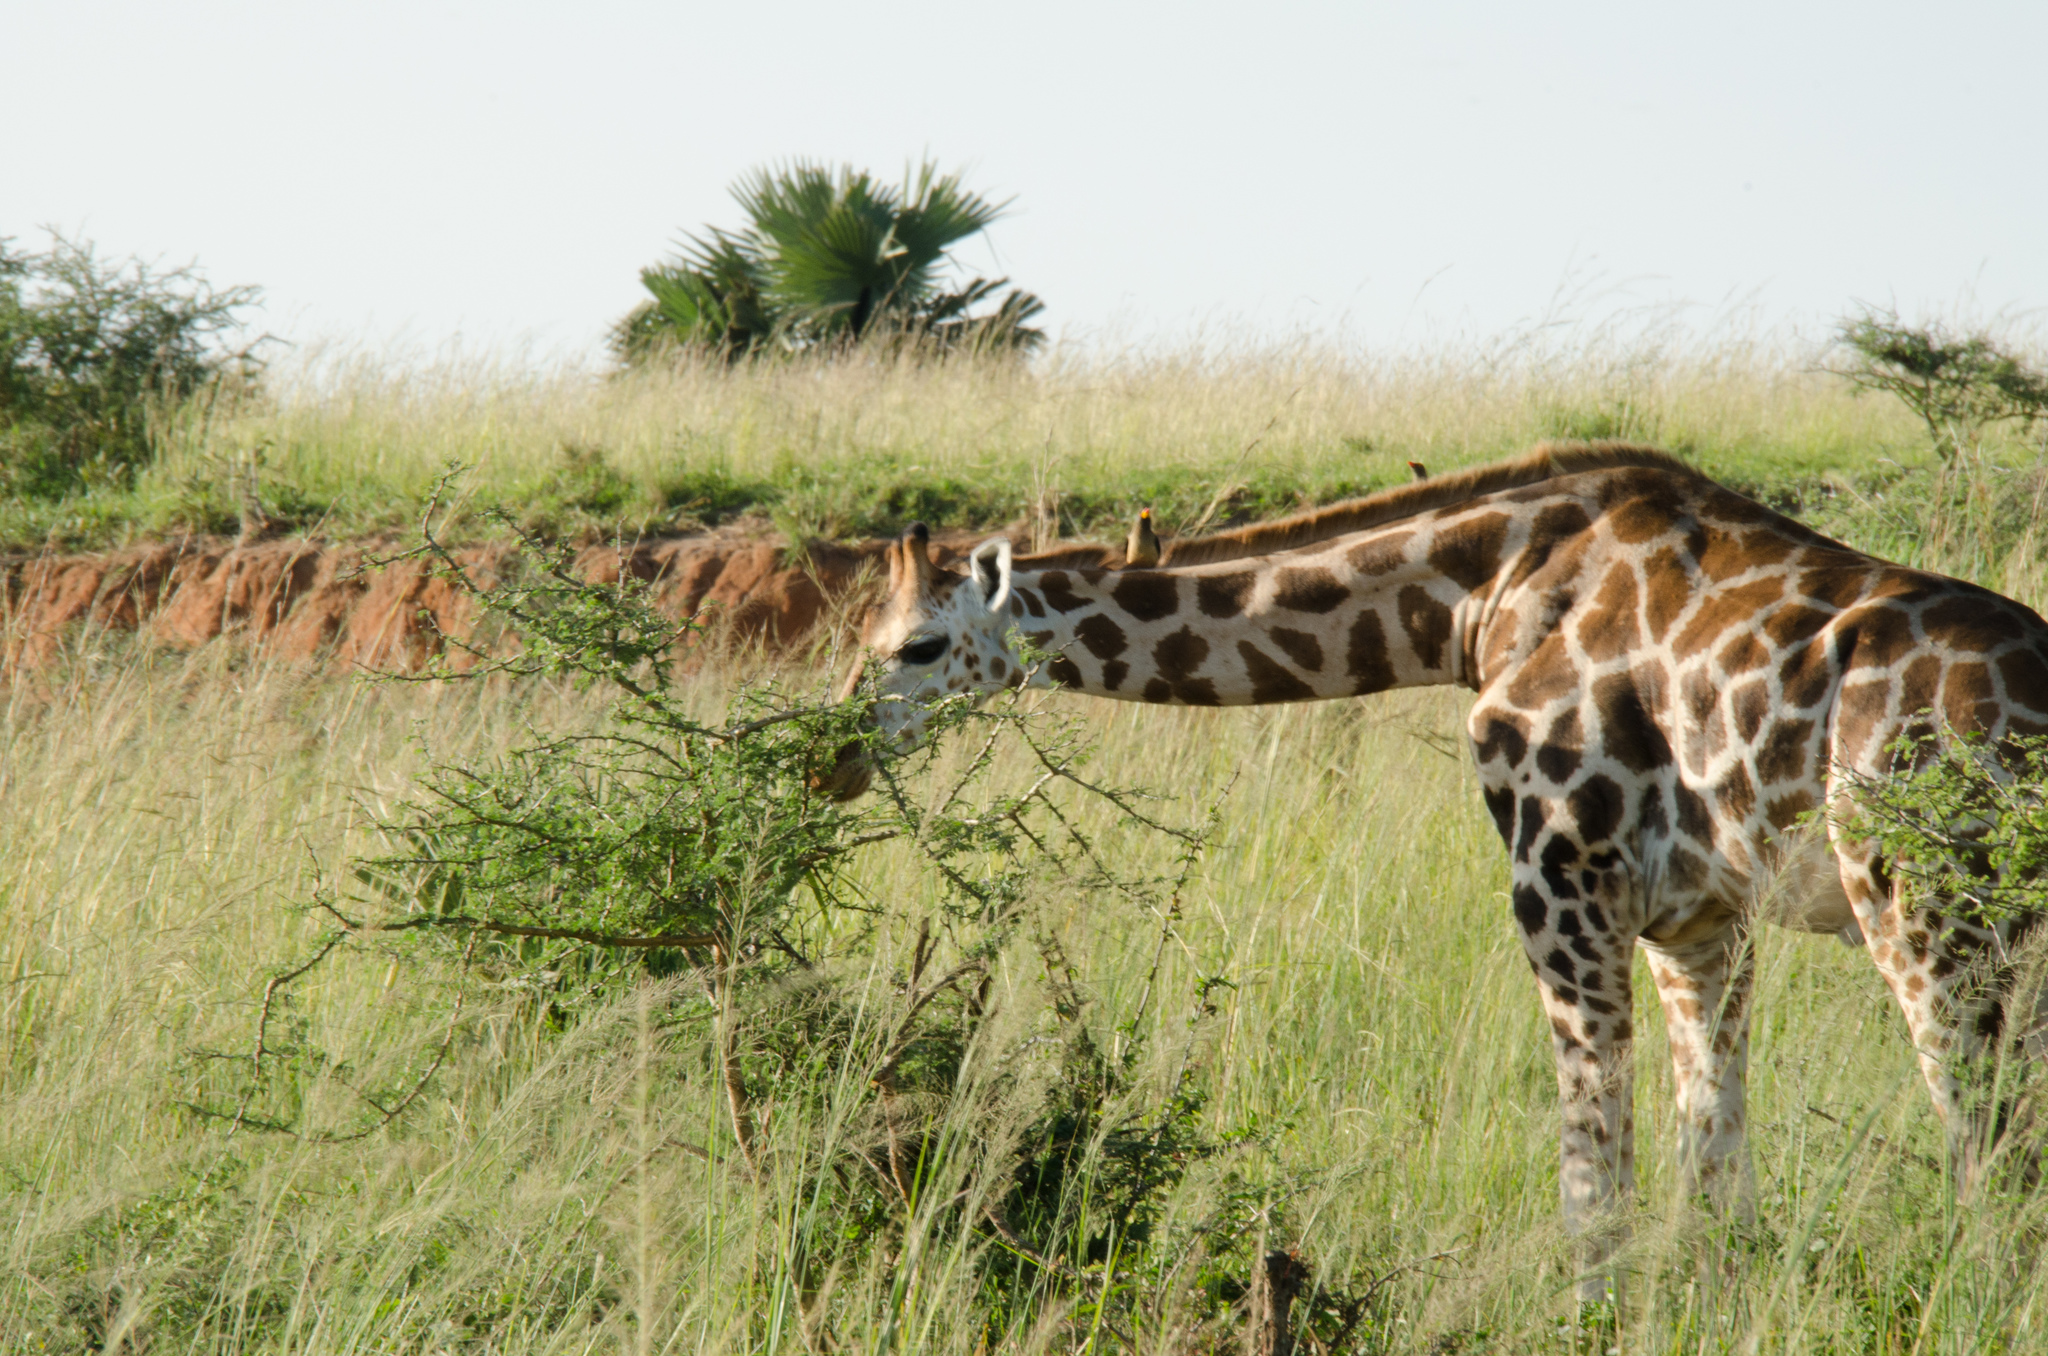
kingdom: Animalia
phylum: Chordata
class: Mammalia
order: Artiodactyla
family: Giraffidae
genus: Giraffa
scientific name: Giraffa camelopardalis
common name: Giraffe
